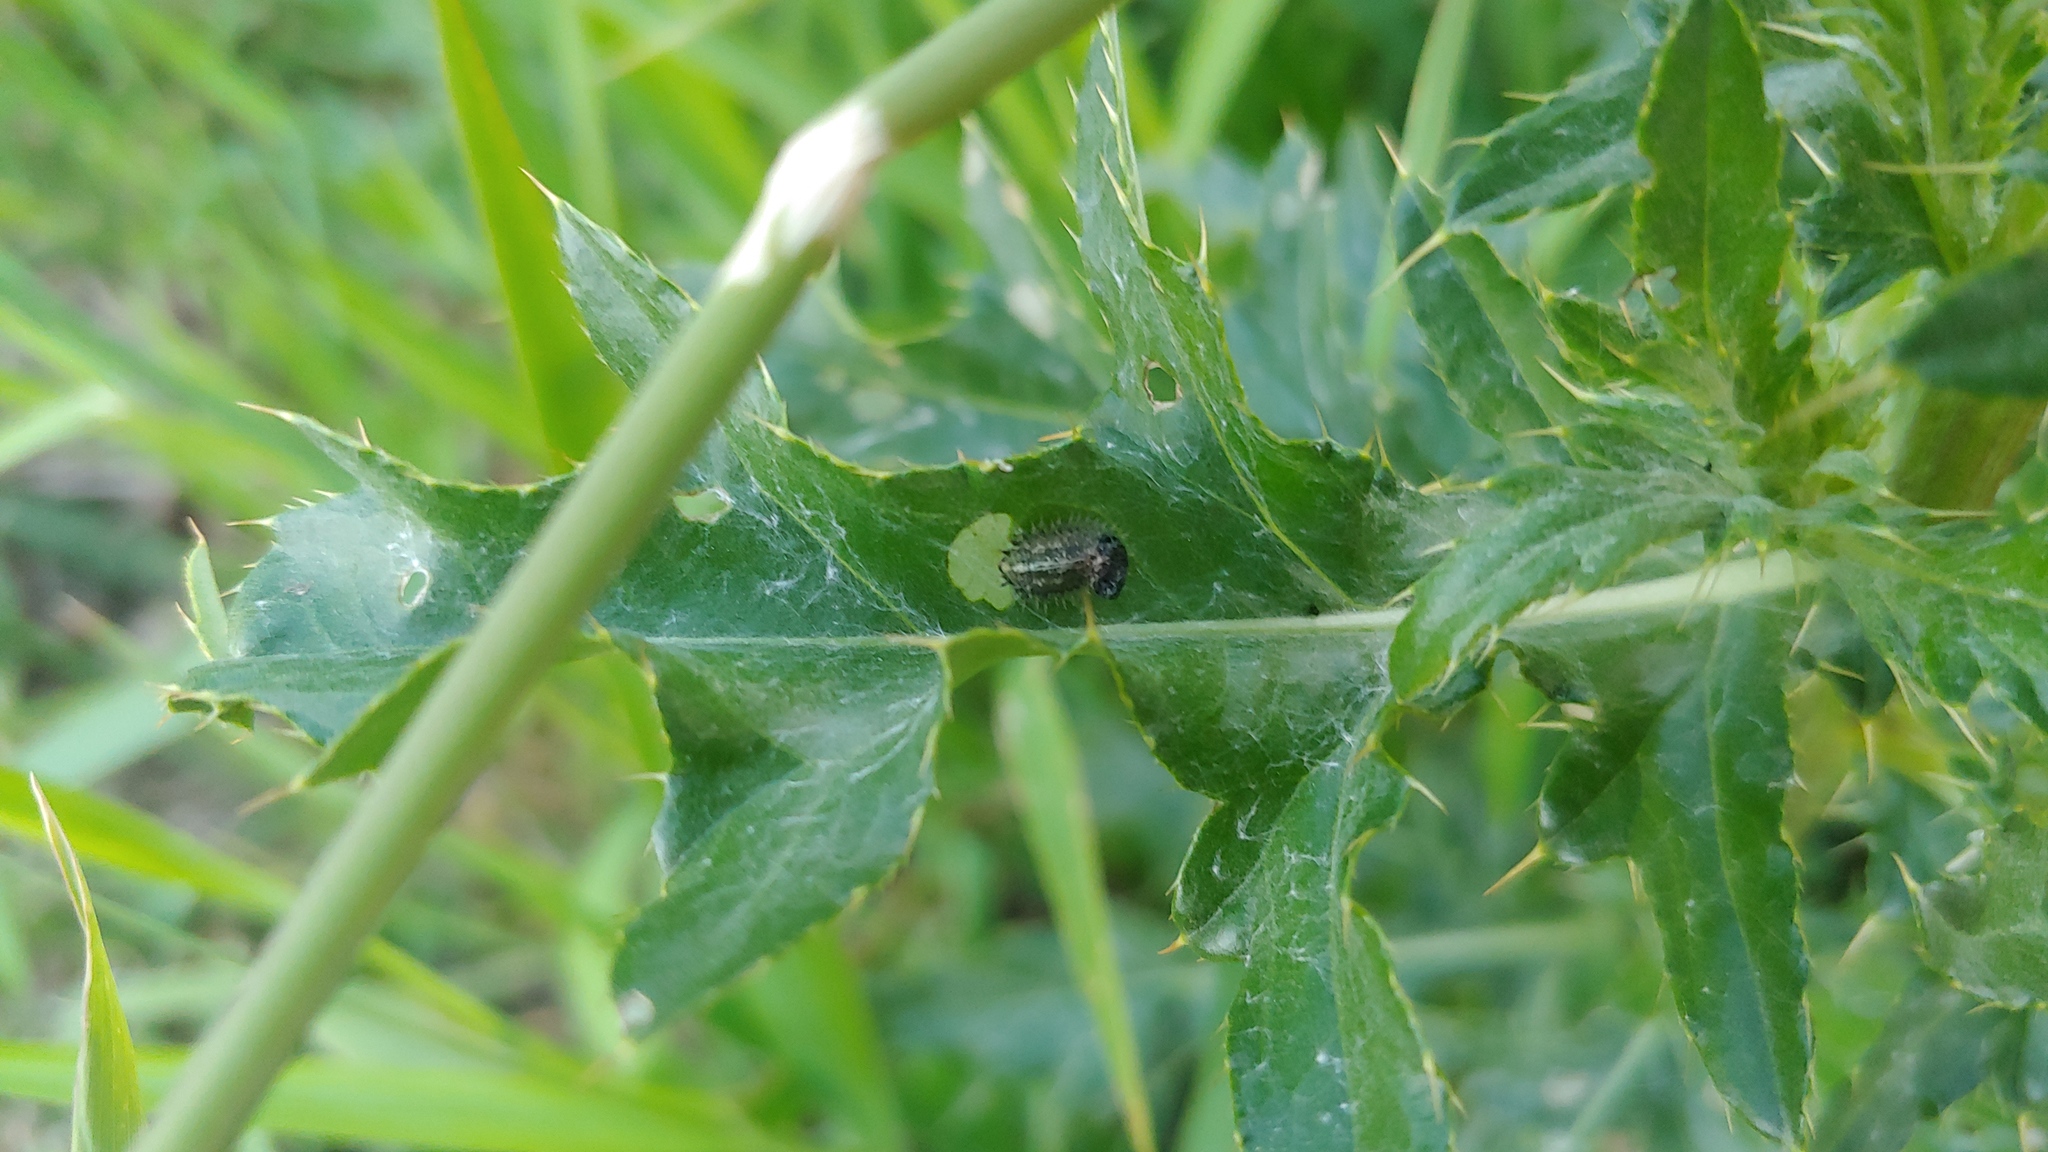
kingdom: Animalia
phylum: Arthropoda
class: Insecta
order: Coleoptera
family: Chrysomelidae
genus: Cassida
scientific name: Cassida rubiginosa
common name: Thistle tortoise beetle
